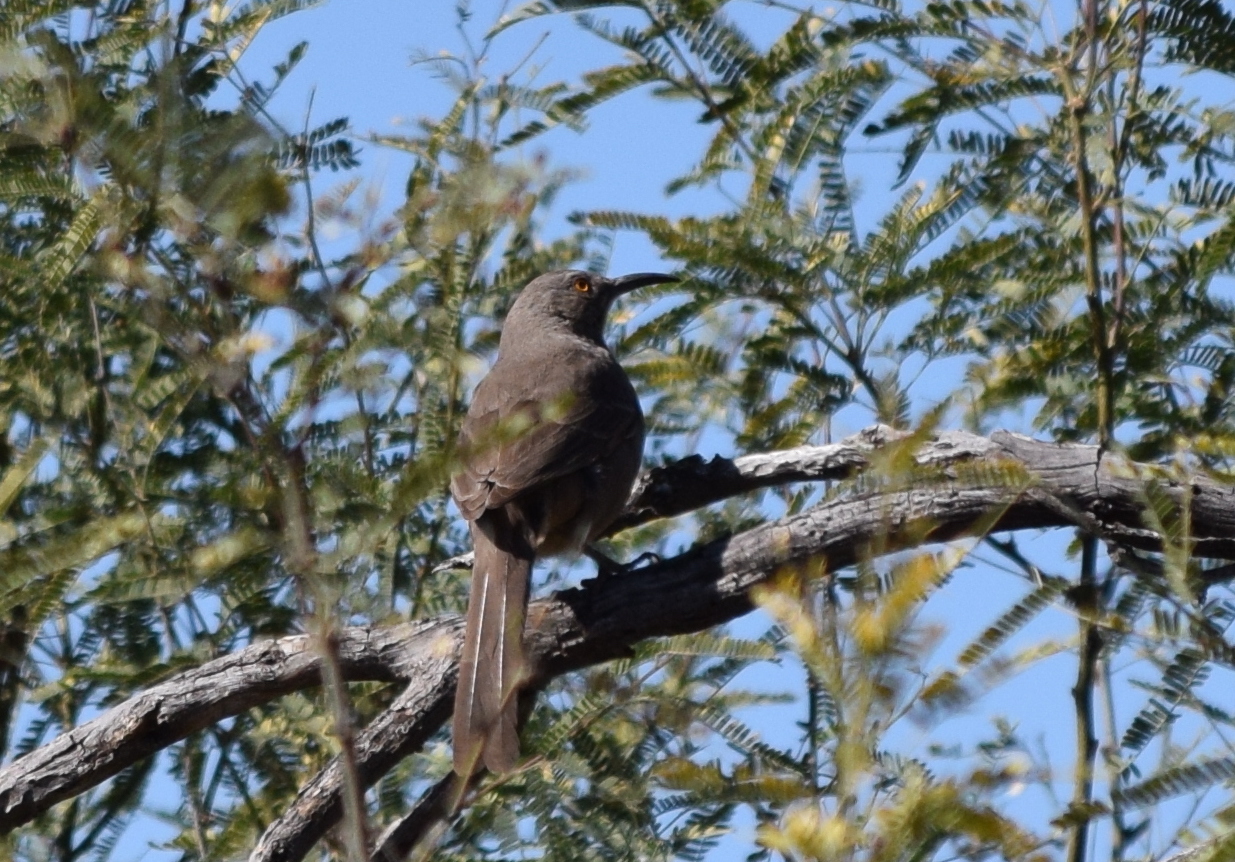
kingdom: Animalia
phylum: Chordata
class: Aves
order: Passeriformes
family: Mimidae
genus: Toxostoma
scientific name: Toxostoma curvirostre
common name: Curve-billed thrasher
